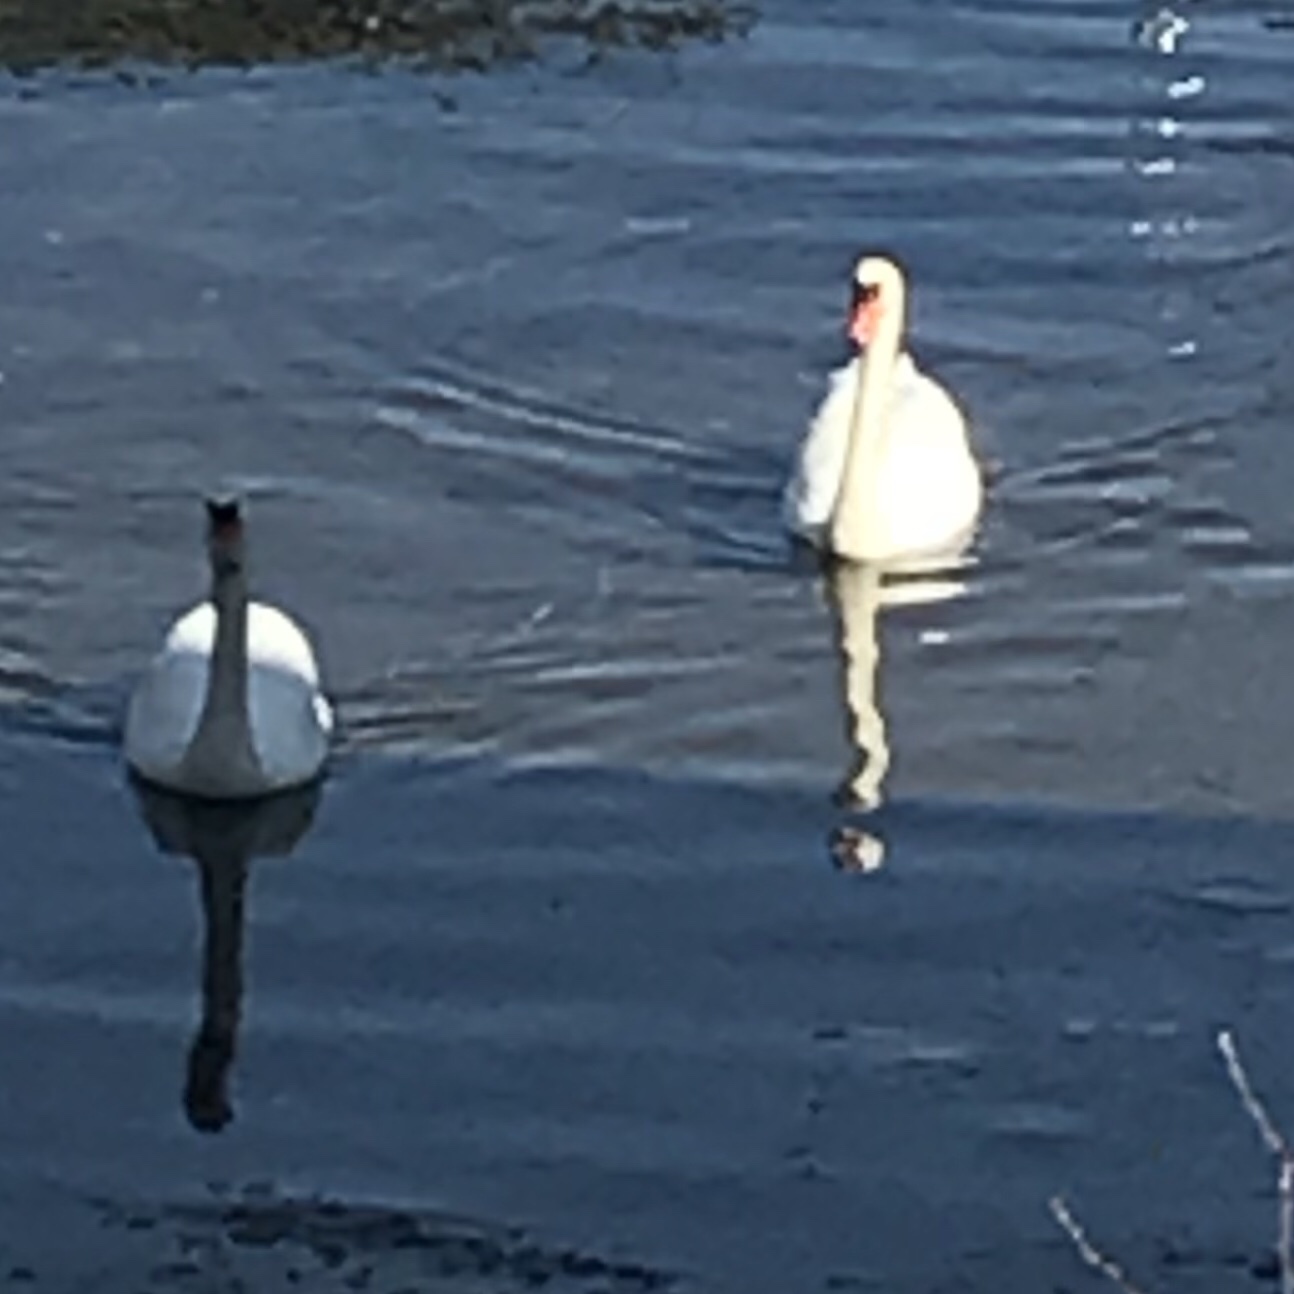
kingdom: Animalia
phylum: Chordata
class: Aves
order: Anseriformes
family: Anatidae
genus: Cygnus
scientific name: Cygnus olor
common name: Mute swan
